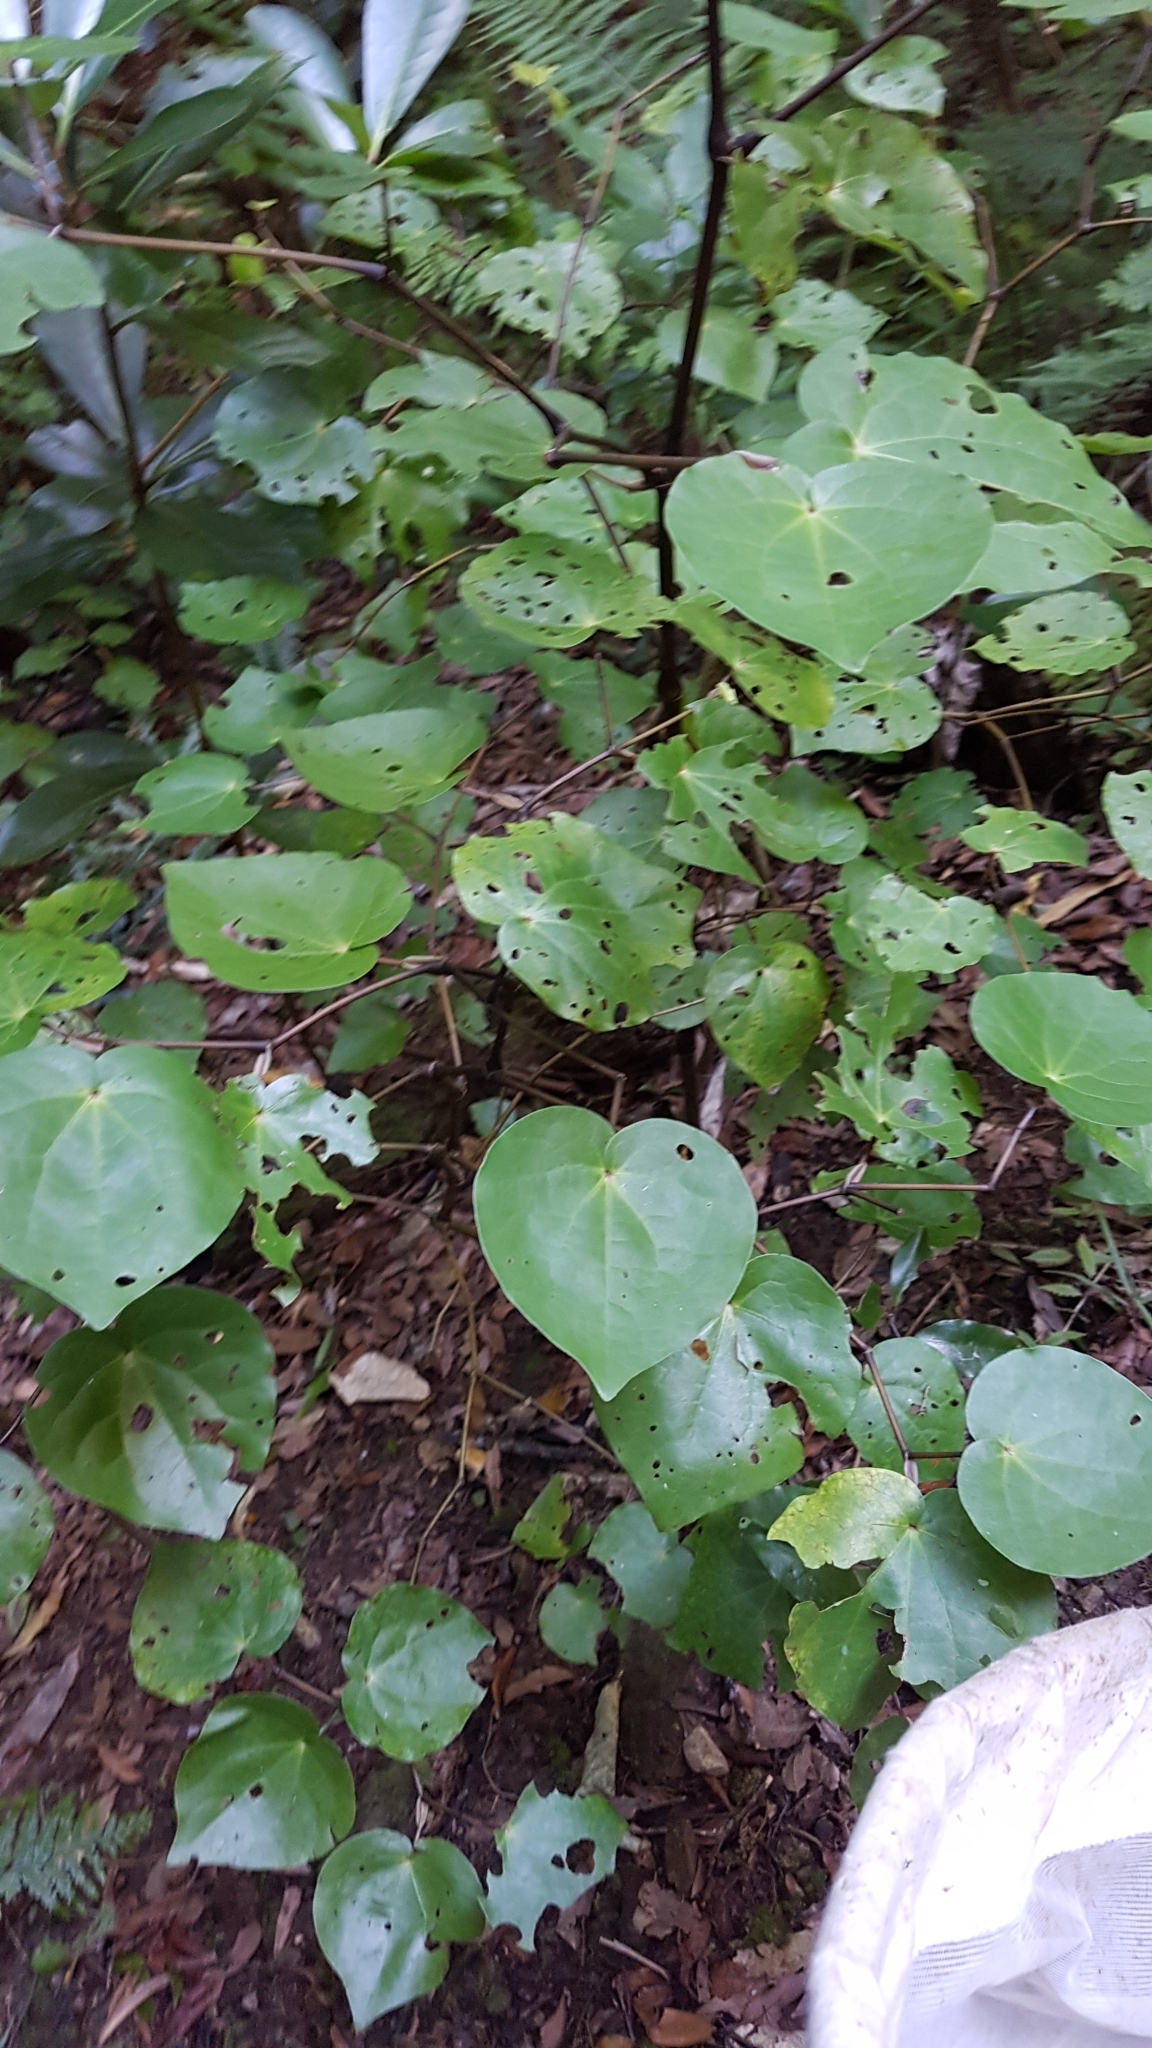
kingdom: Plantae
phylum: Tracheophyta
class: Magnoliopsida
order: Piperales
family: Piperaceae
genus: Macropiper
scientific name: Macropiper excelsum
